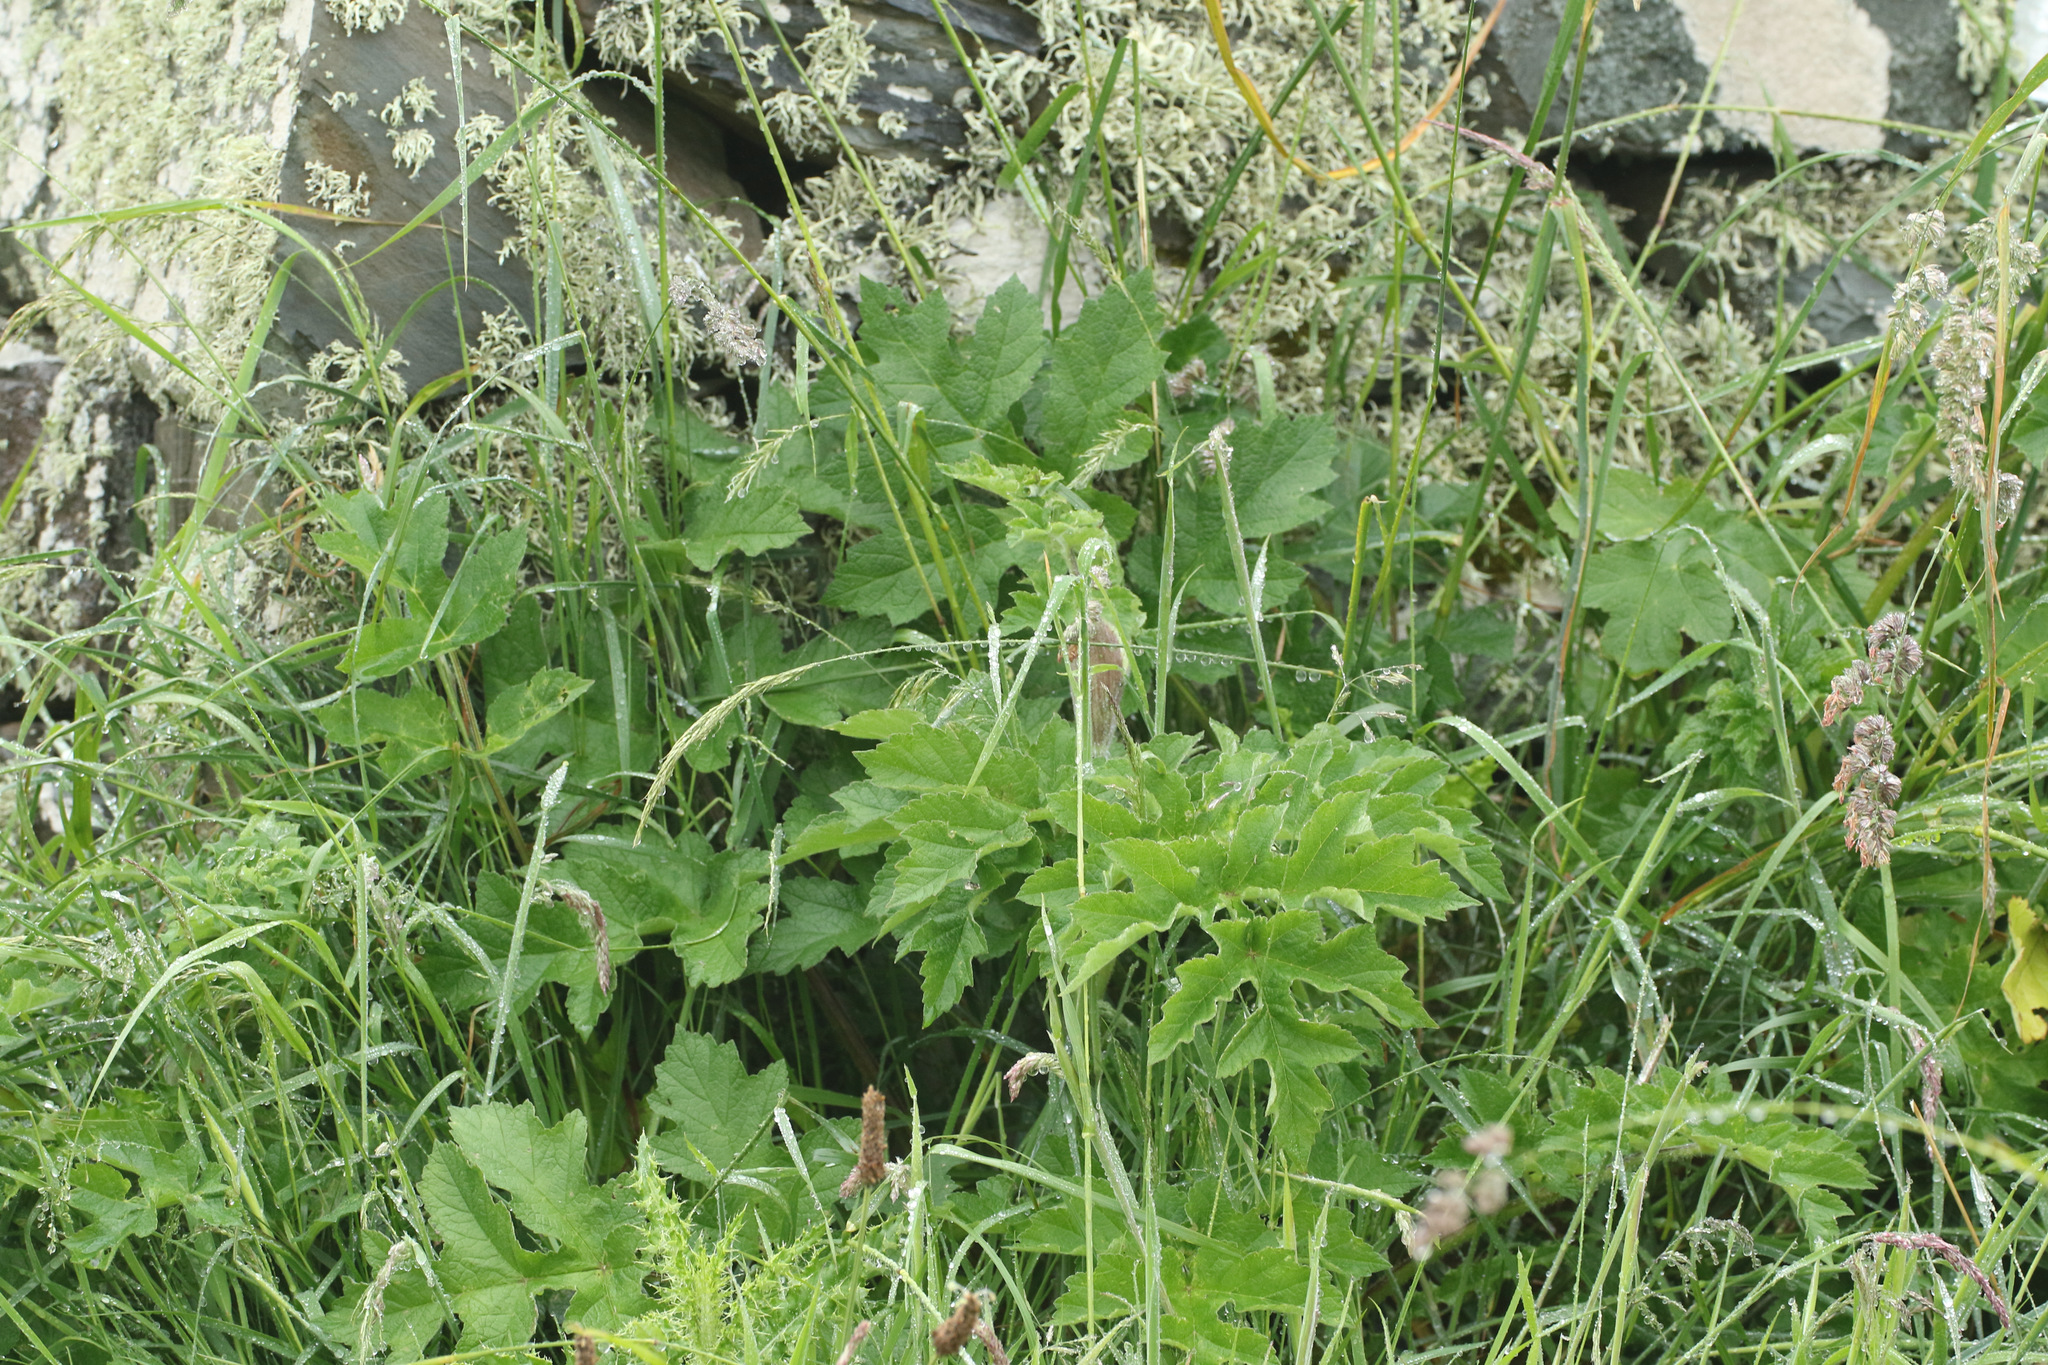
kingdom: Plantae
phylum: Tracheophyta
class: Magnoliopsida
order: Apiales
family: Apiaceae
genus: Heracleum
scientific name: Heracleum sphondylium
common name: Hogweed
